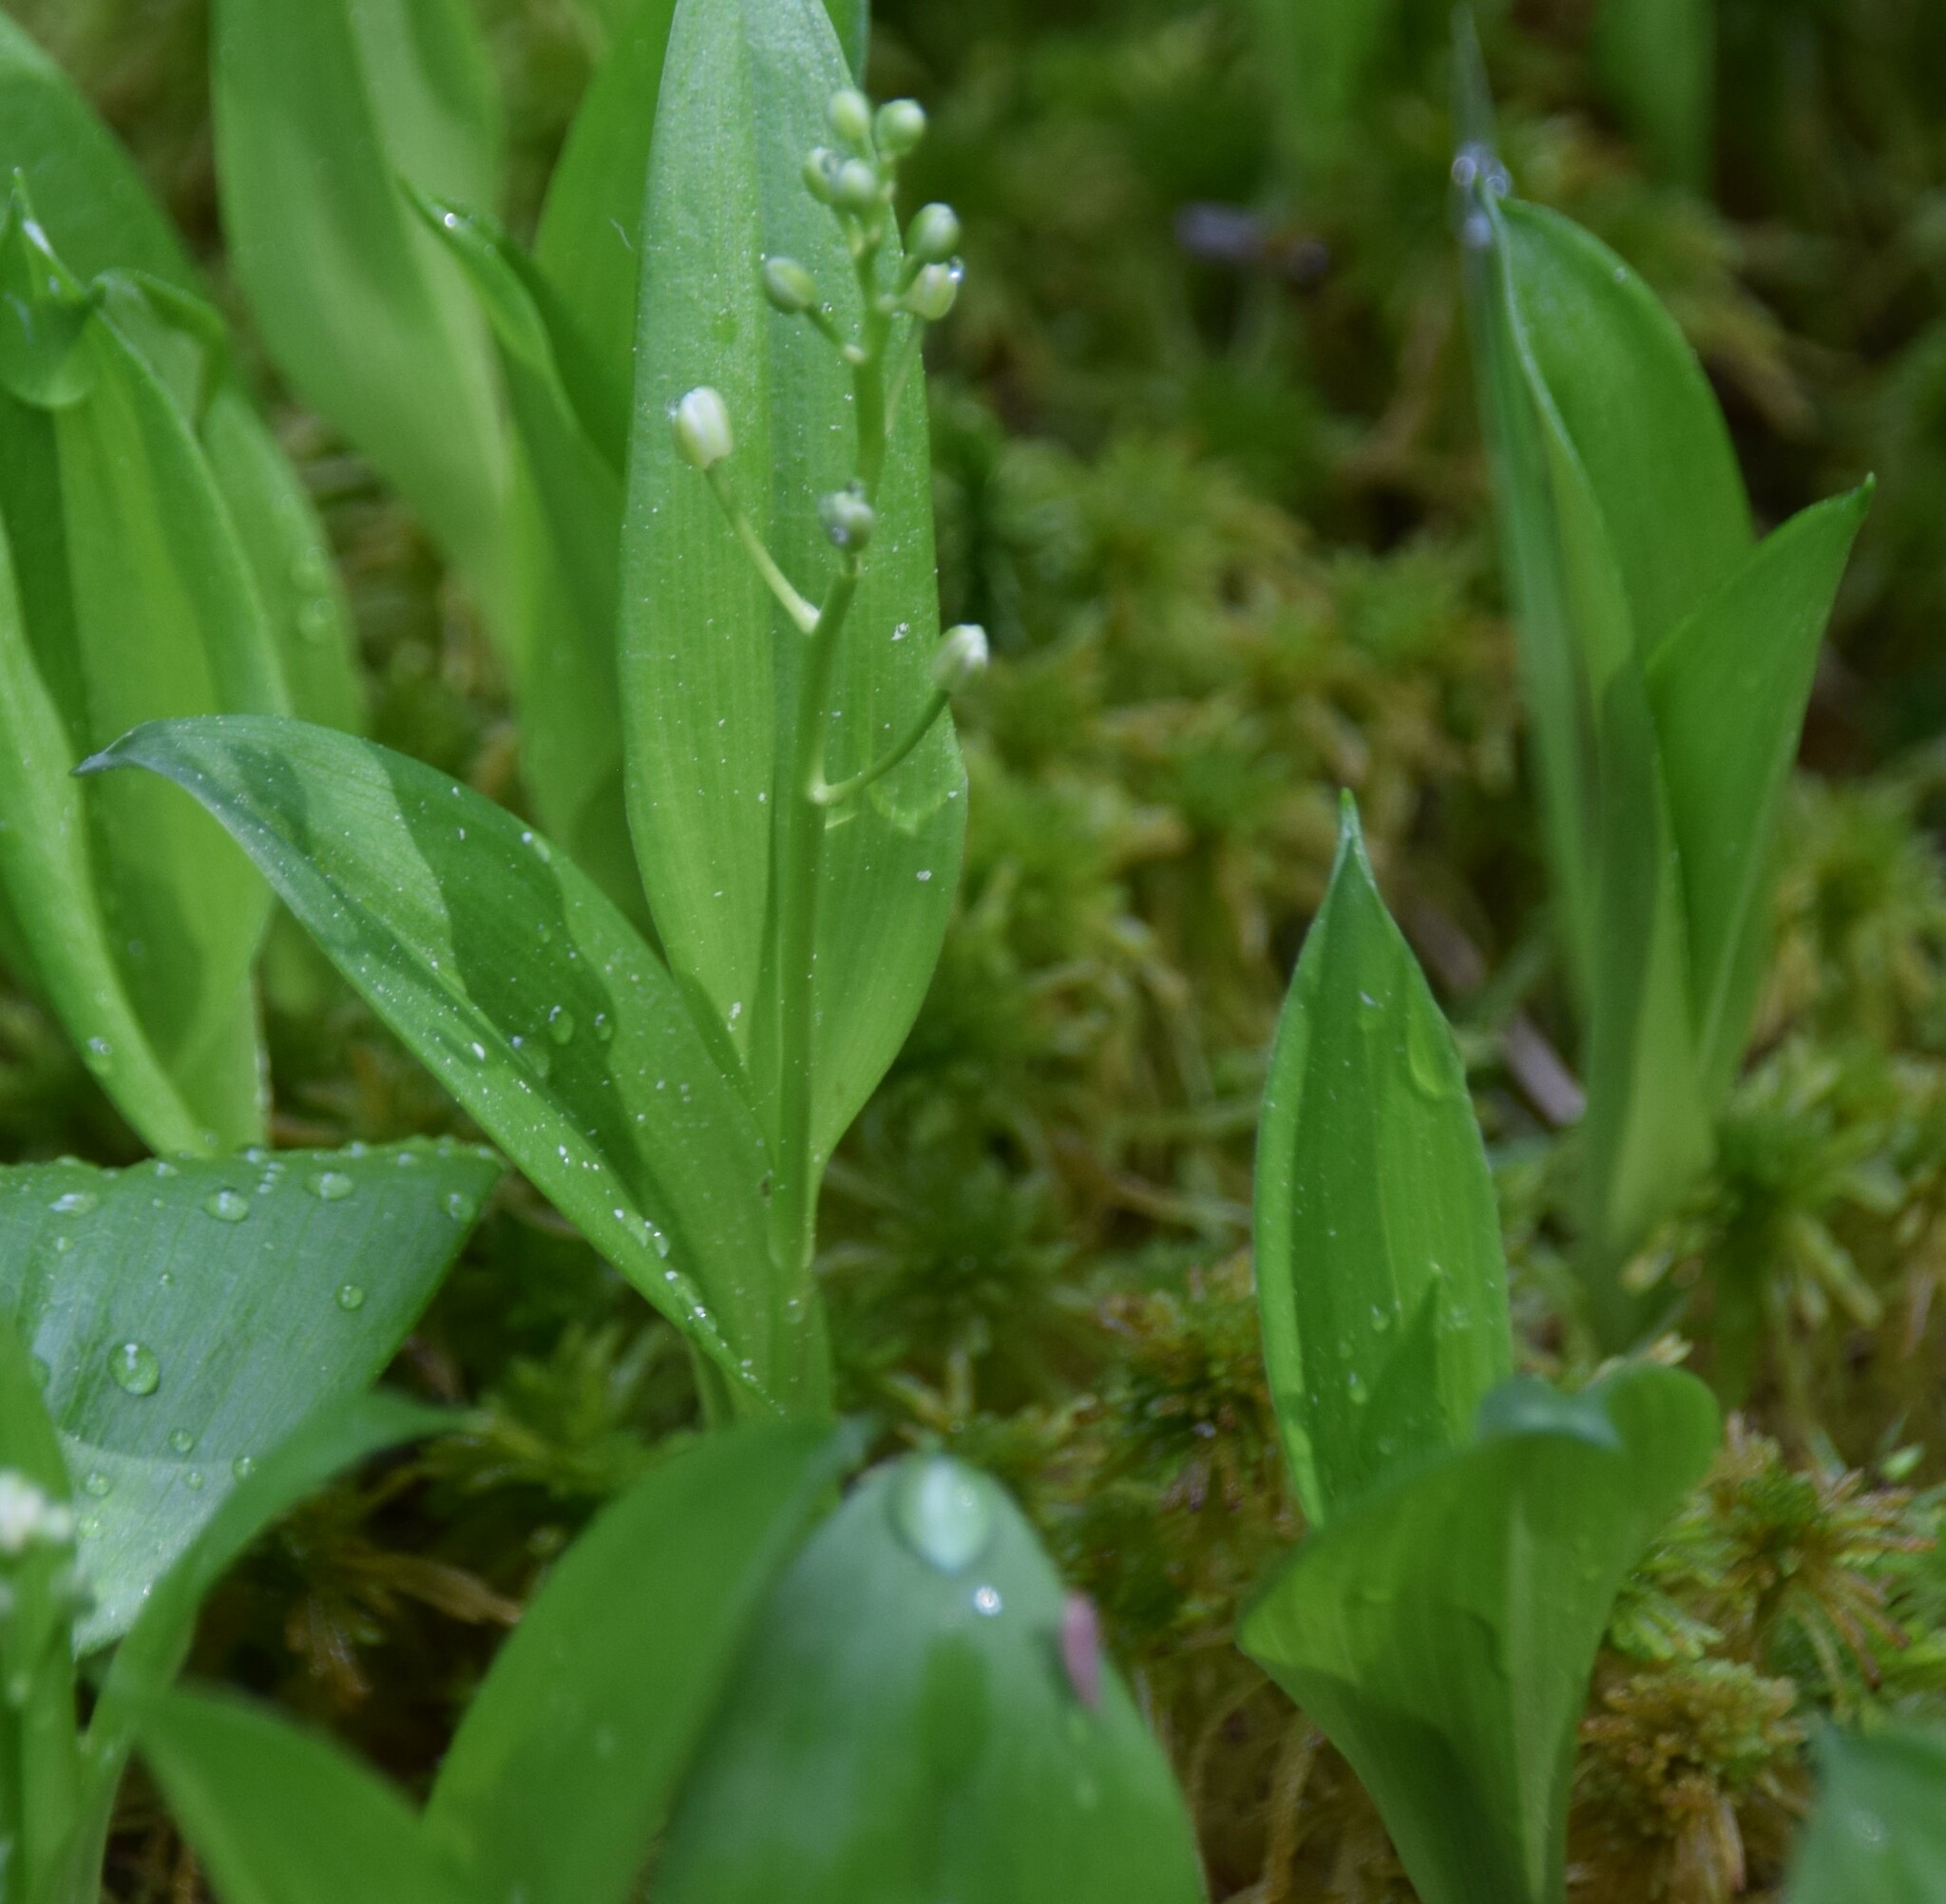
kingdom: Plantae
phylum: Tracheophyta
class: Liliopsida
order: Asparagales
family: Asparagaceae
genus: Maianthemum
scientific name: Maianthemum trifolium
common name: Swamp false solomon's seal
